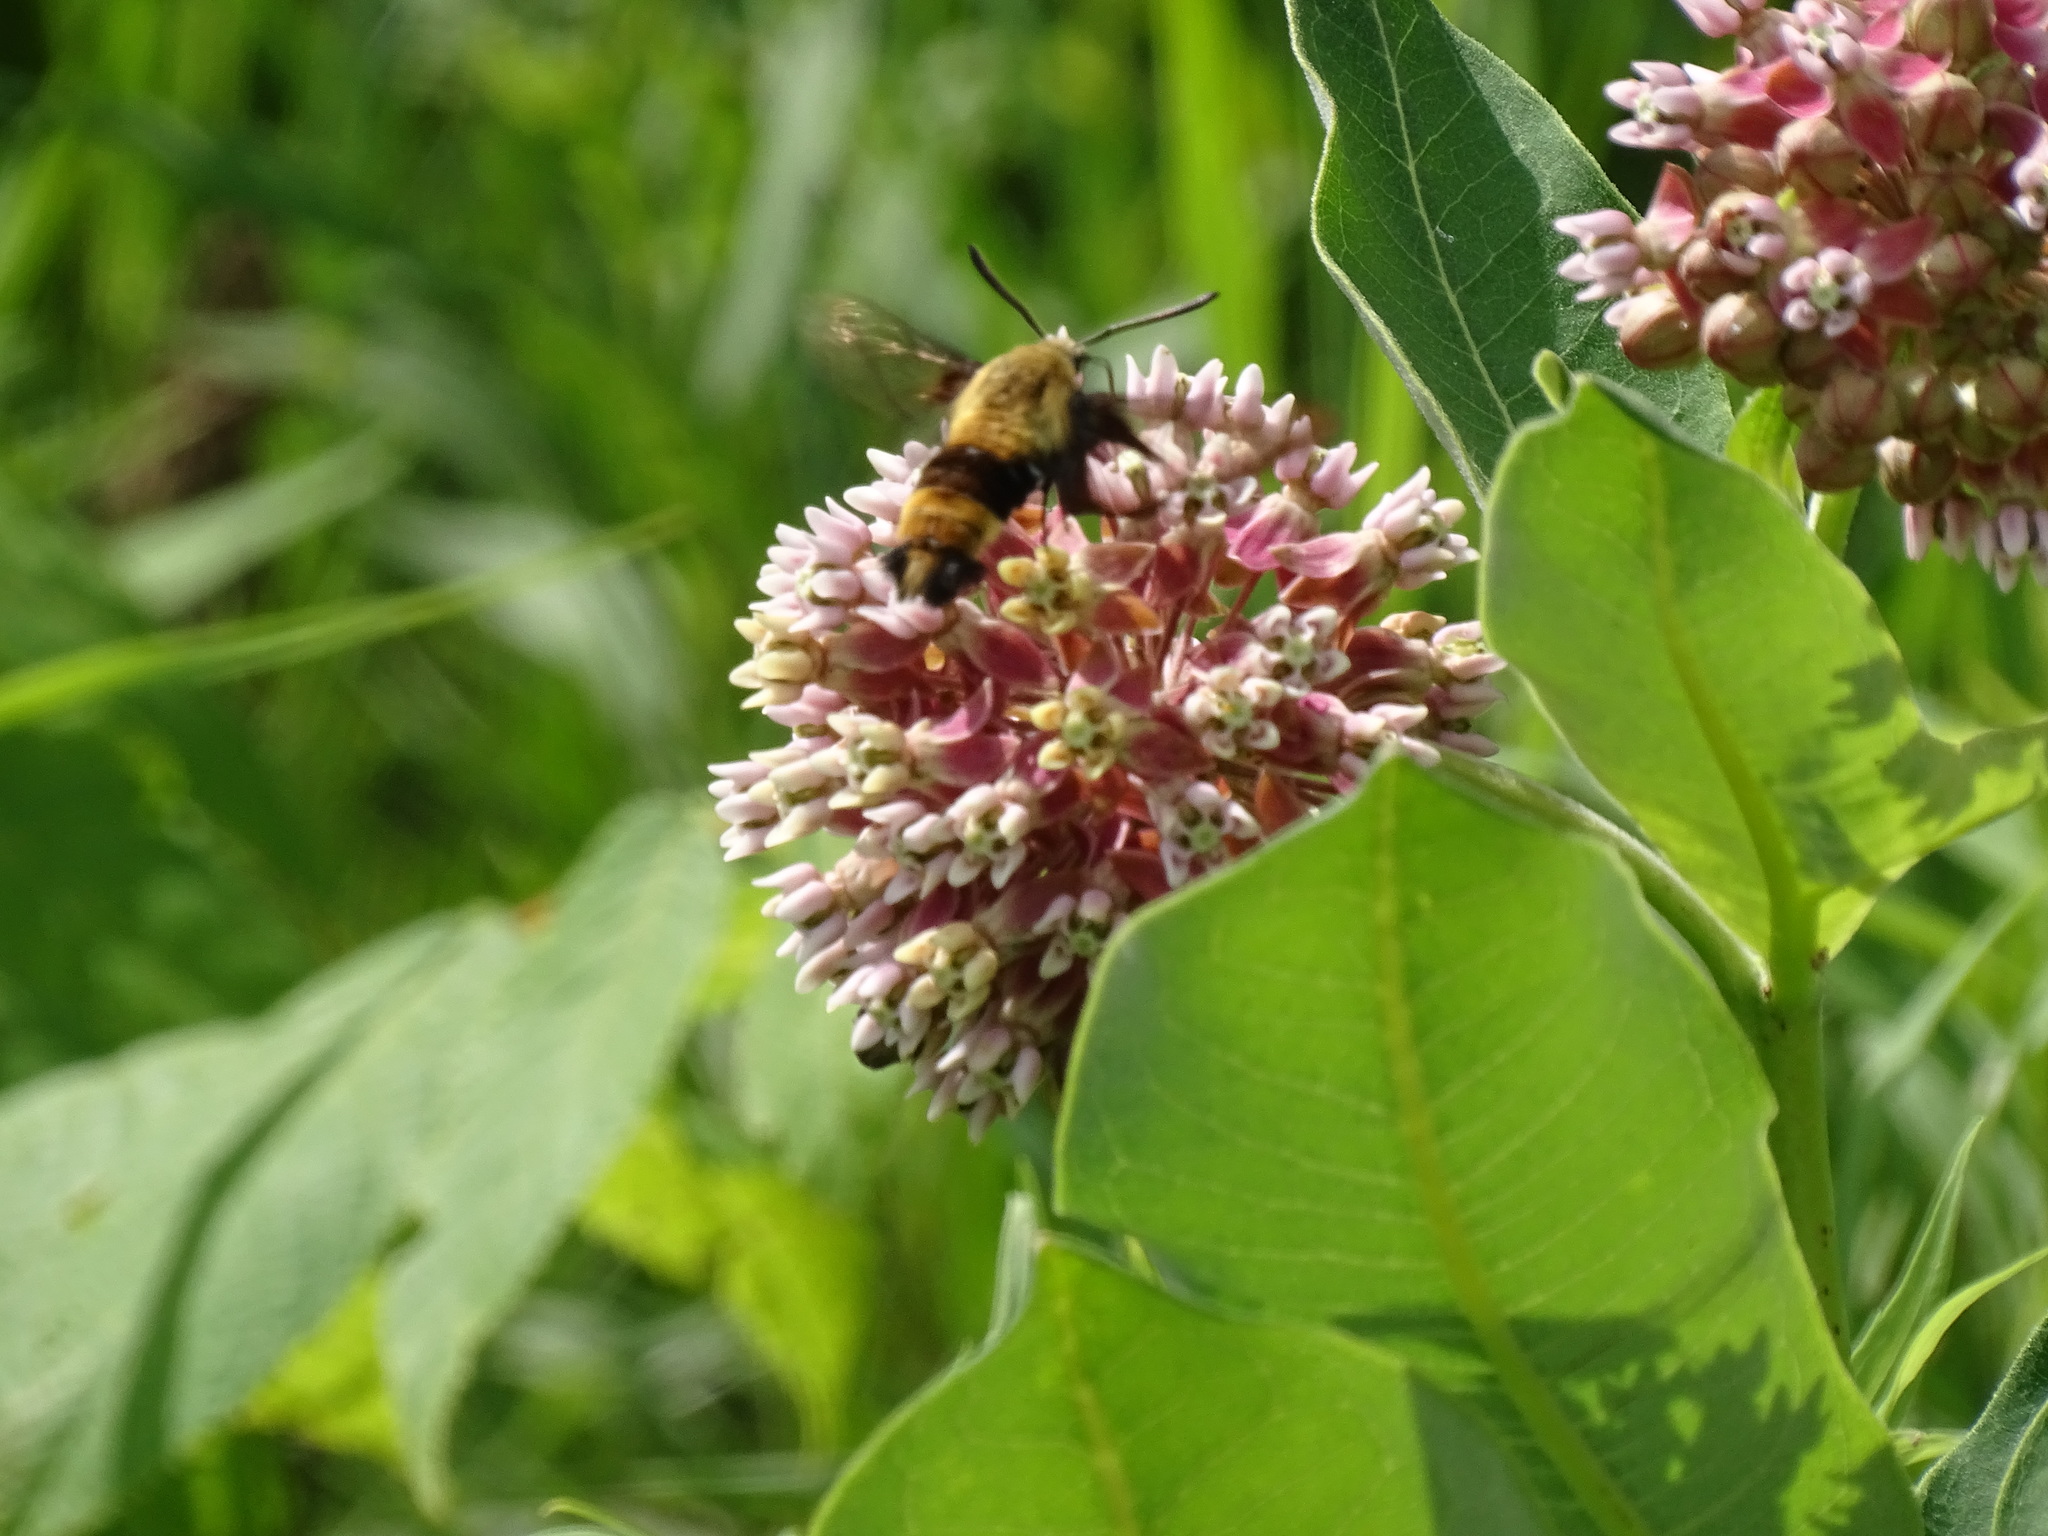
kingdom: Animalia
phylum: Arthropoda
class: Insecta
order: Lepidoptera
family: Sphingidae
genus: Hemaris
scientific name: Hemaris diffinis
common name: Bumblebee moth
